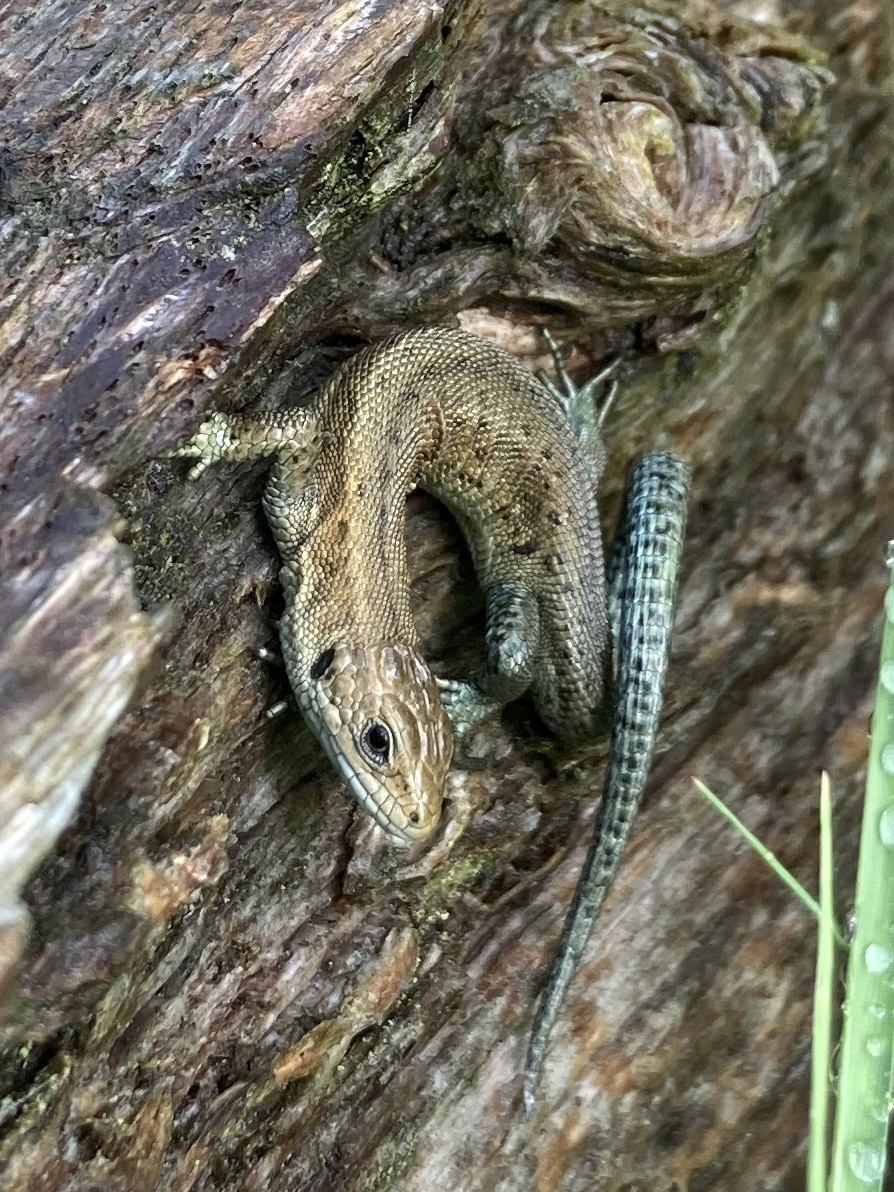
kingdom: Animalia
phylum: Chordata
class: Squamata
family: Lacertidae
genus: Zootoca
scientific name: Zootoca vivipara
